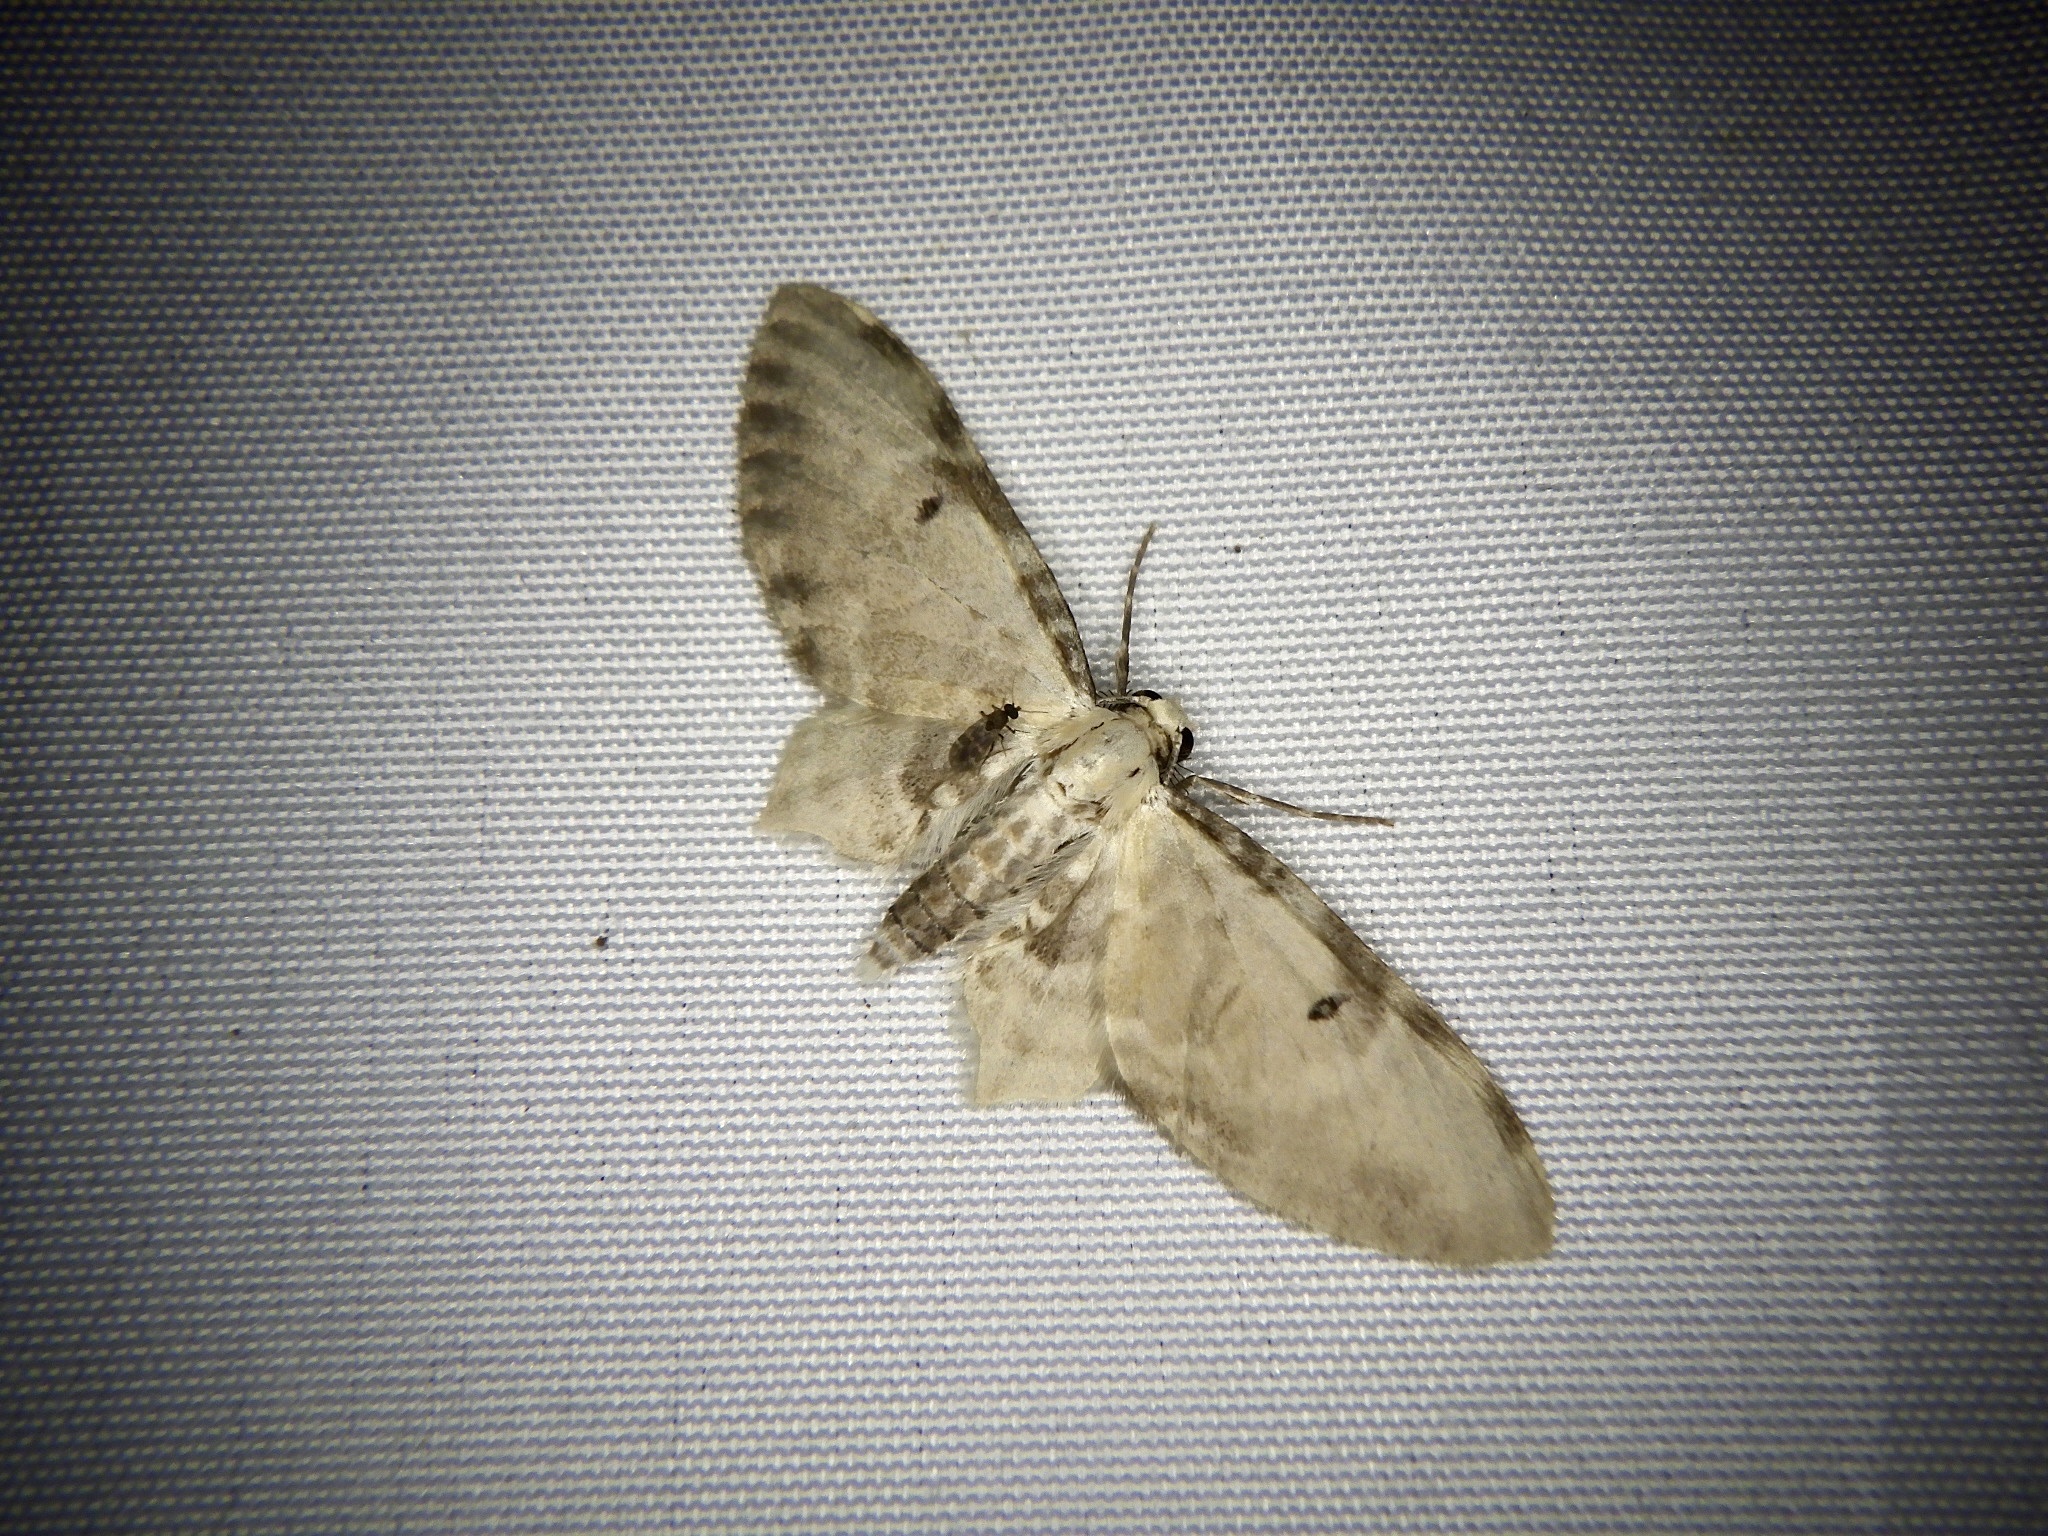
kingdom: Animalia
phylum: Arthropoda
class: Insecta
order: Lepidoptera
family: Geometridae
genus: Brabira
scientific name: Brabira artemidora
